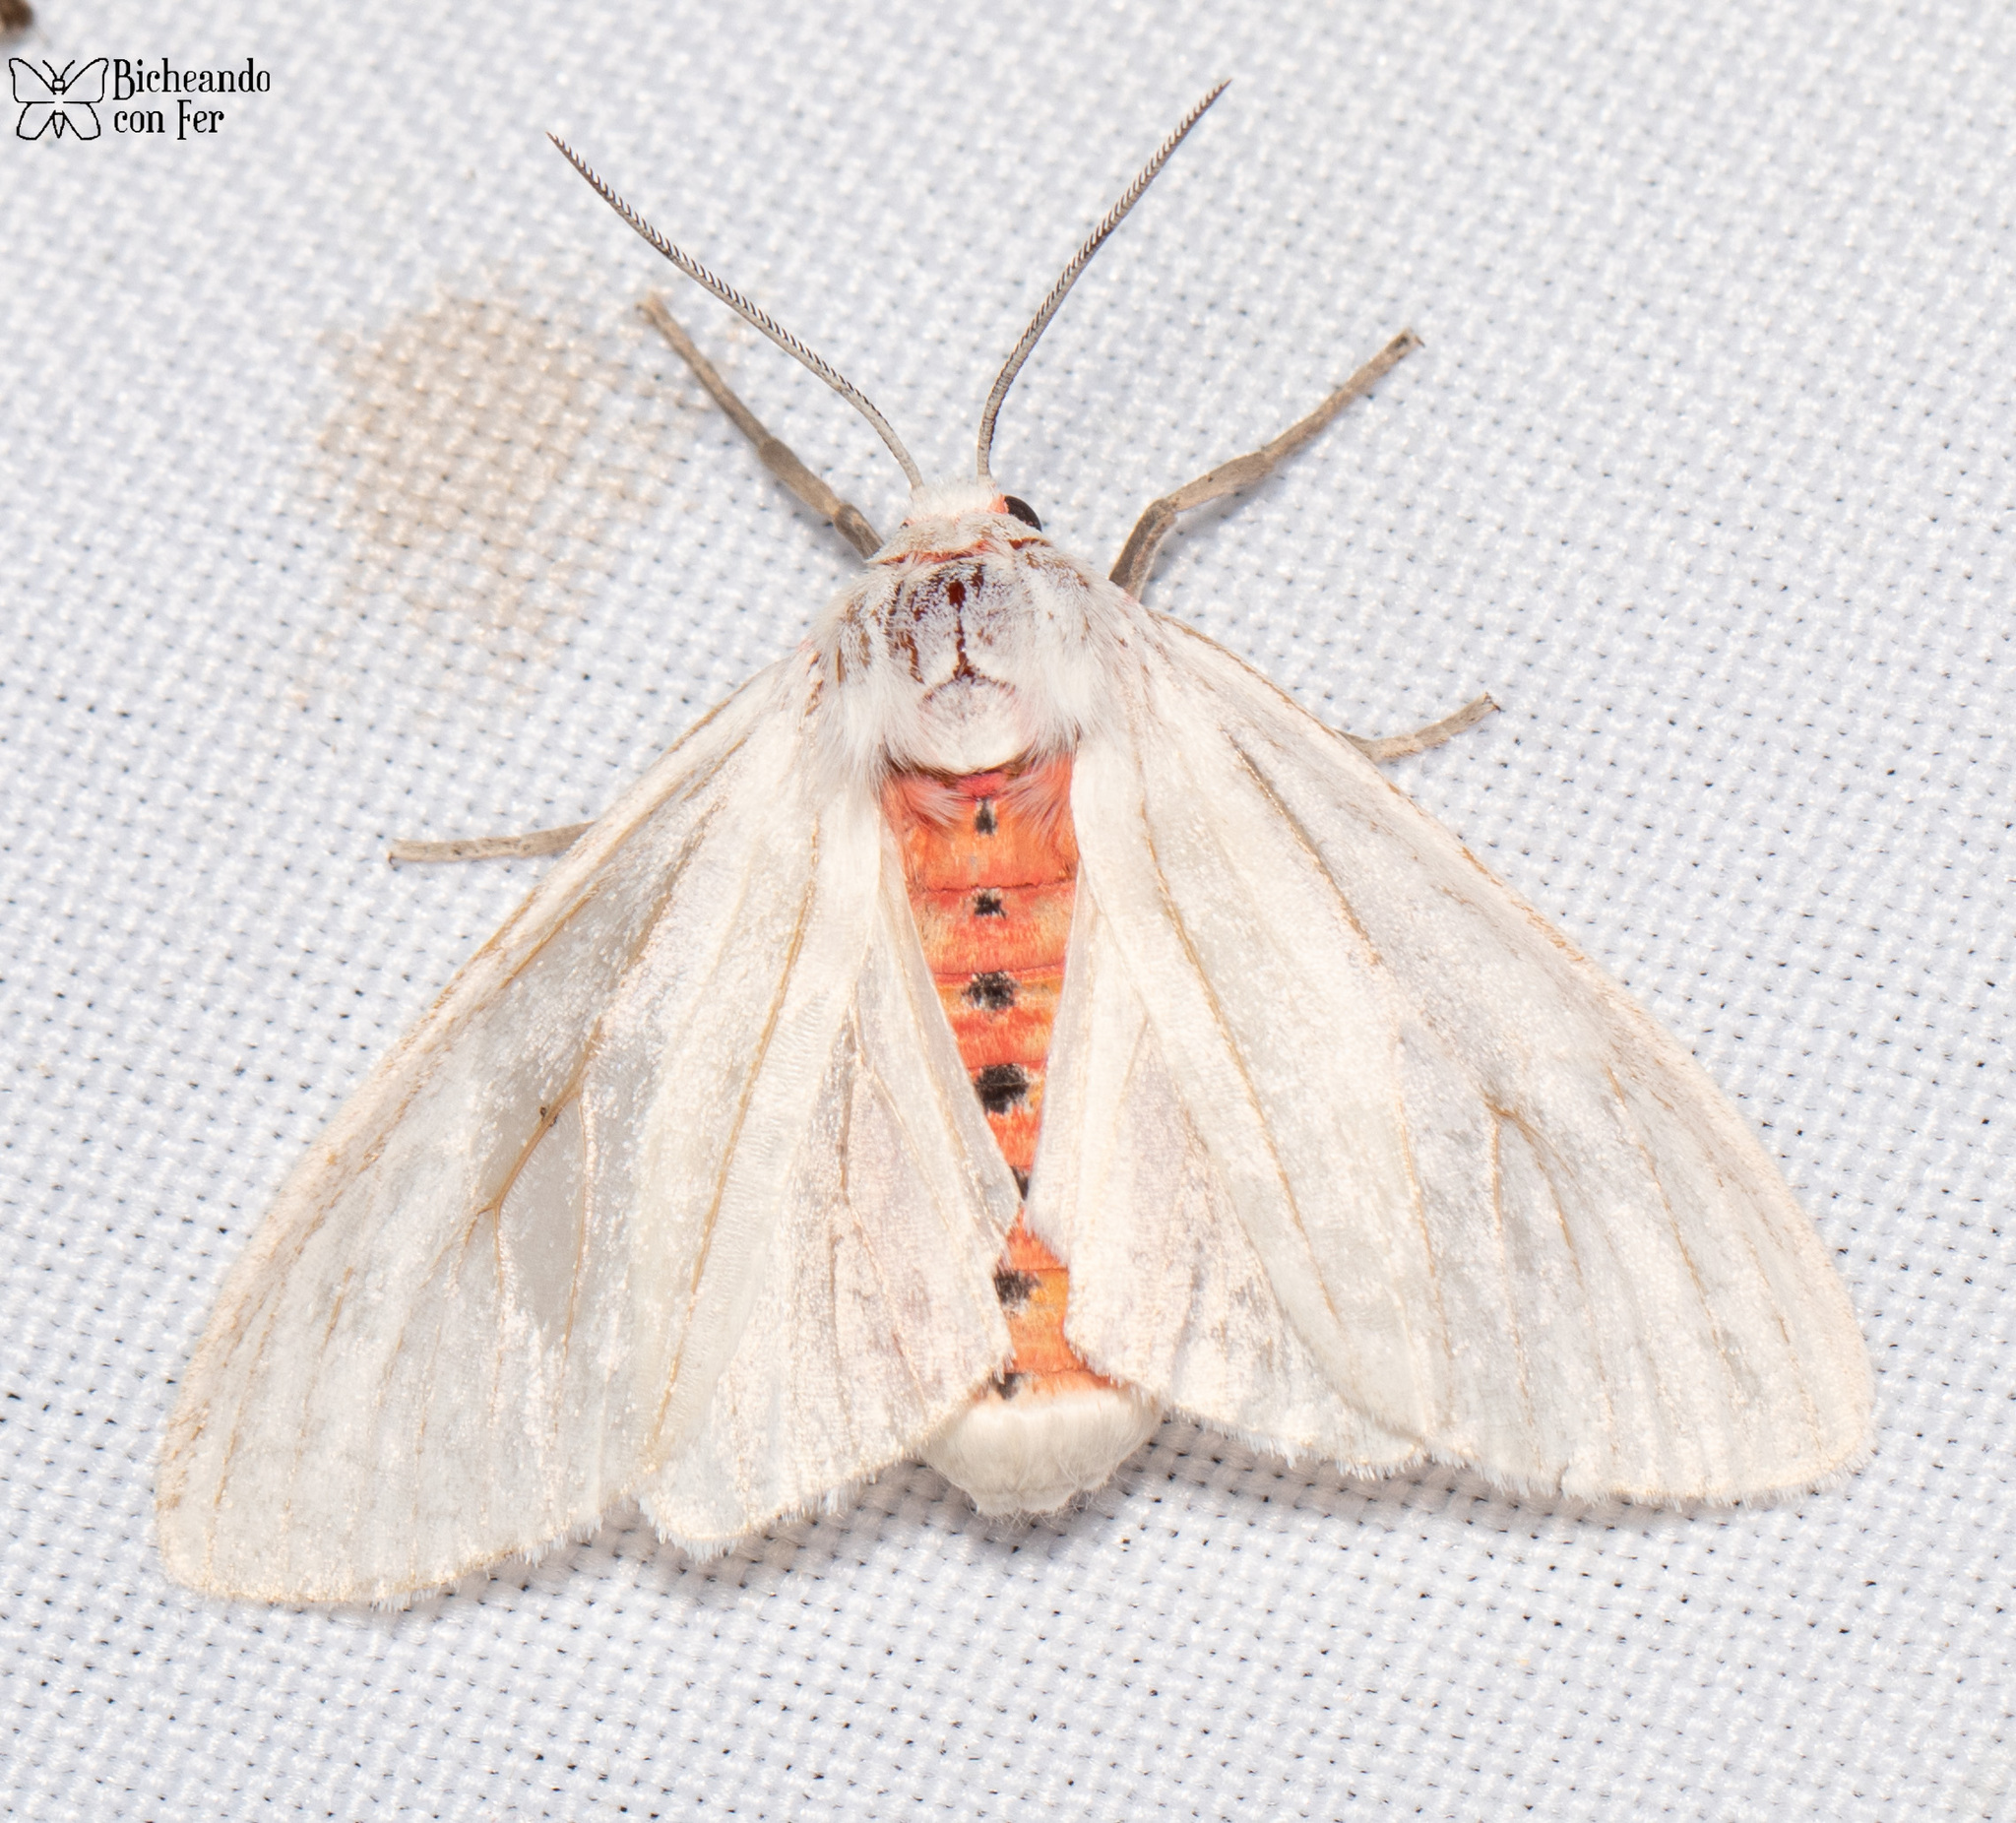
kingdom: Animalia
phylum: Arthropoda
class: Insecta
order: Lepidoptera
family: Erebidae
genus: Euchaetes
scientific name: Euchaetes elegans
